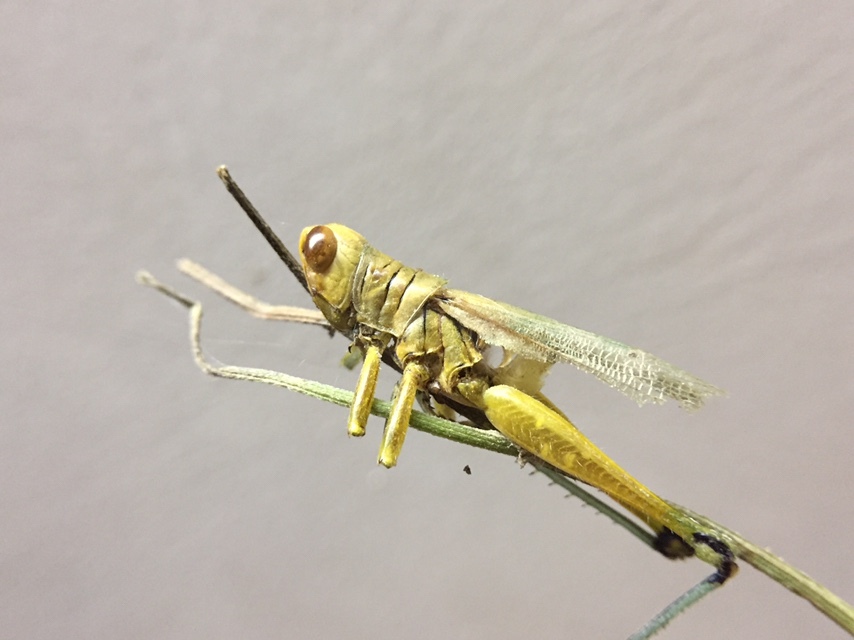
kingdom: Animalia
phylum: Arthropoda
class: Insecta
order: Orthoptera
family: Acrididae
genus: Hieroglyphus
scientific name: Hieroglyphus banian
